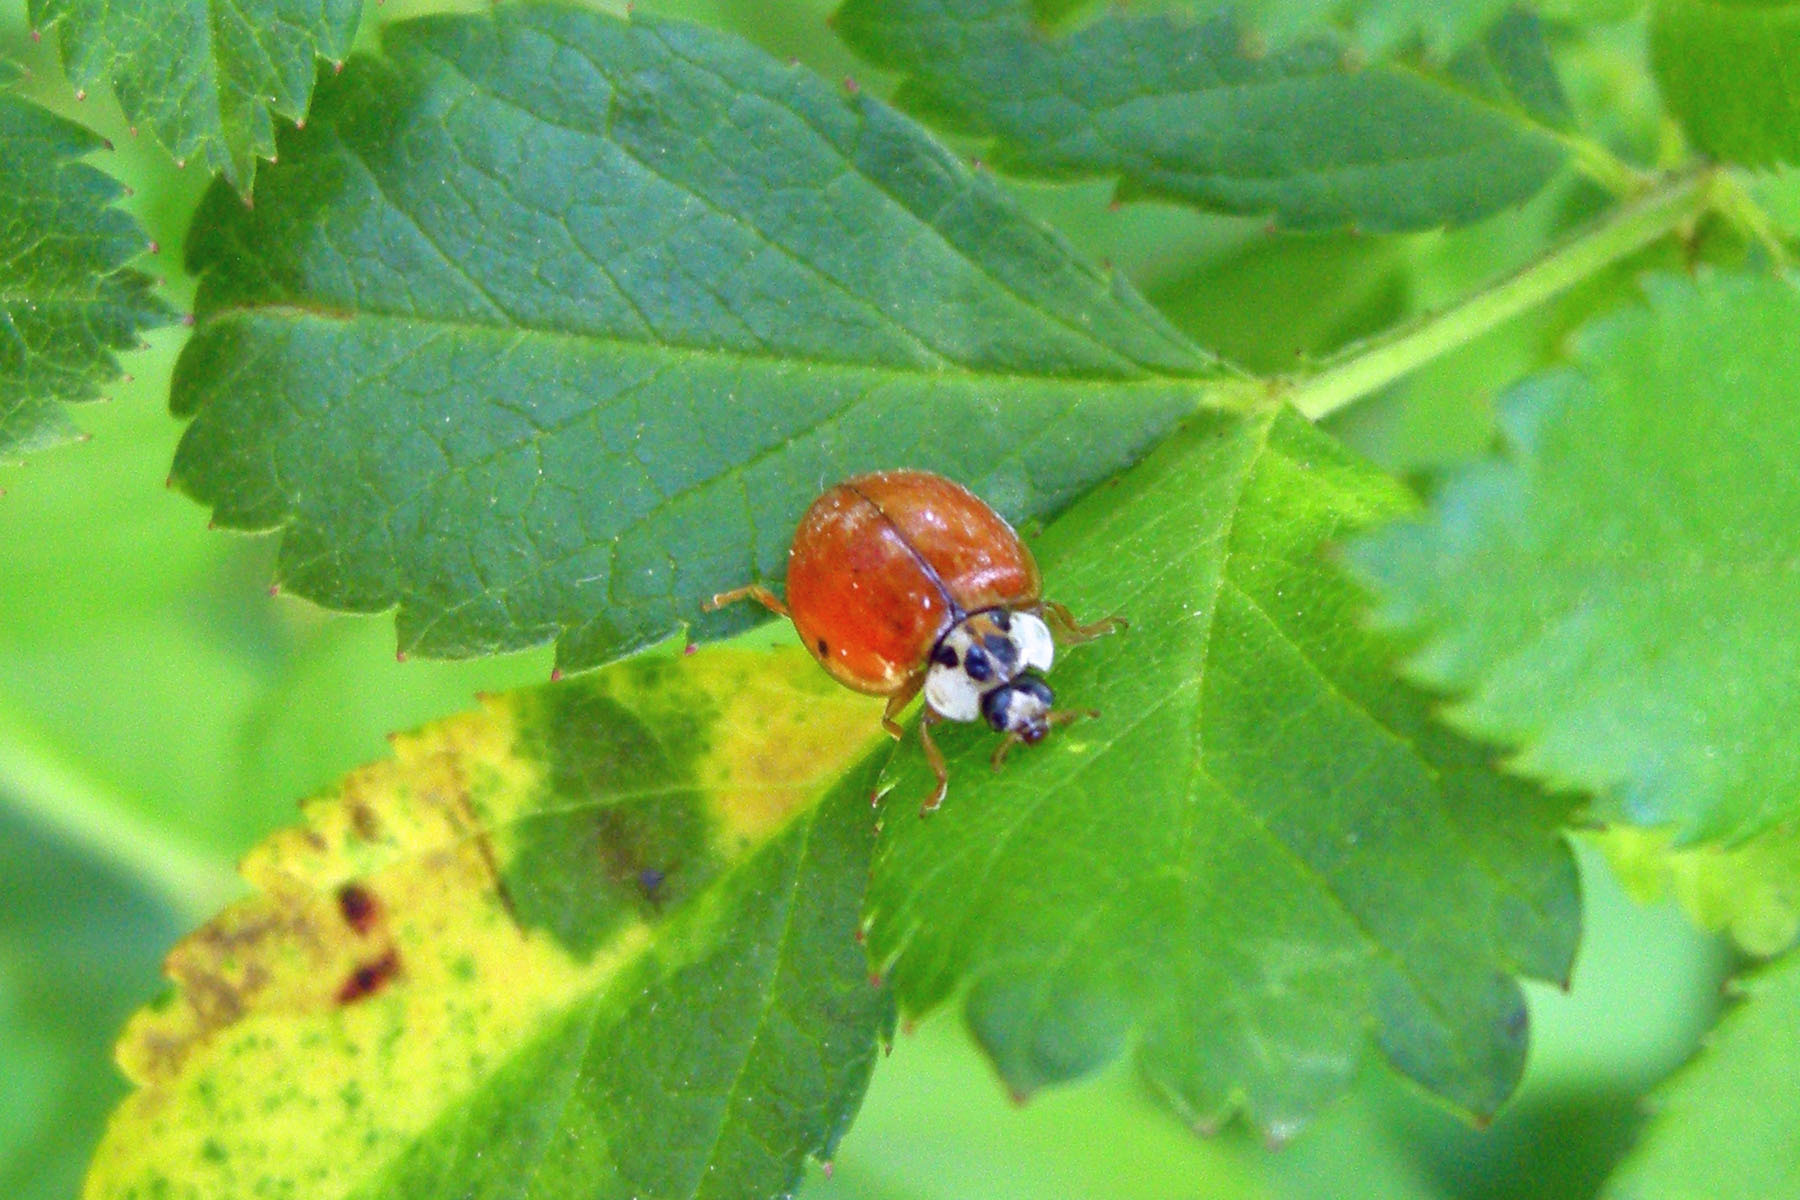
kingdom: Animalia
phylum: Arthropoda
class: Insecta
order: Coleoptera
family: Coccinellidae
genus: Harmonia
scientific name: Harmonia axyridis
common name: Harlequin ladybird
